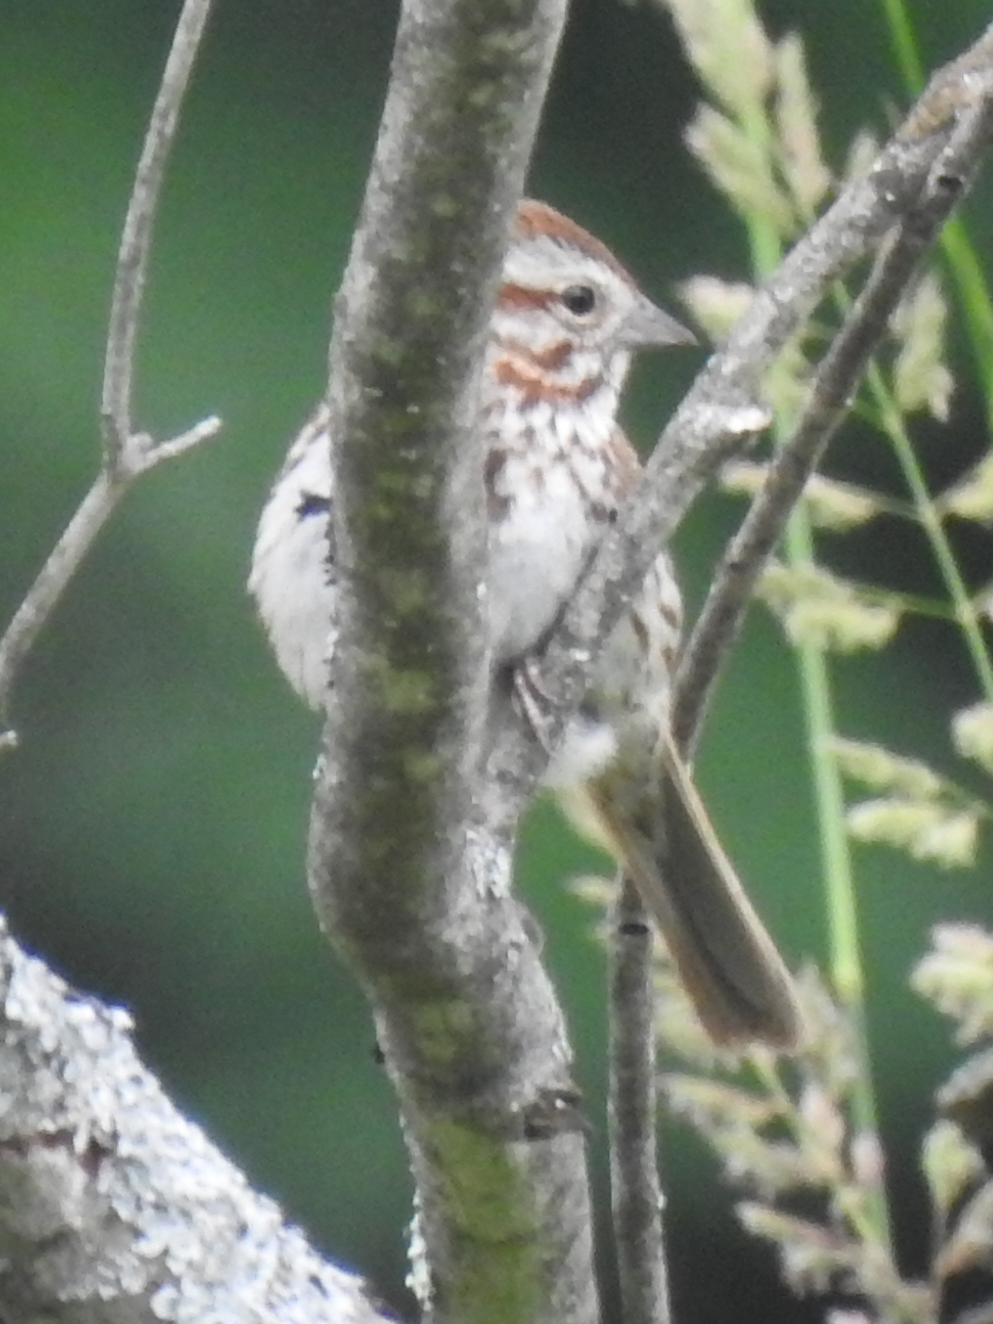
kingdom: Animalia
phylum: Chordata
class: Aves
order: Passeriformes
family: Passerellidae
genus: Melospiza
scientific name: Melospiza melodia
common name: Song sparrow
